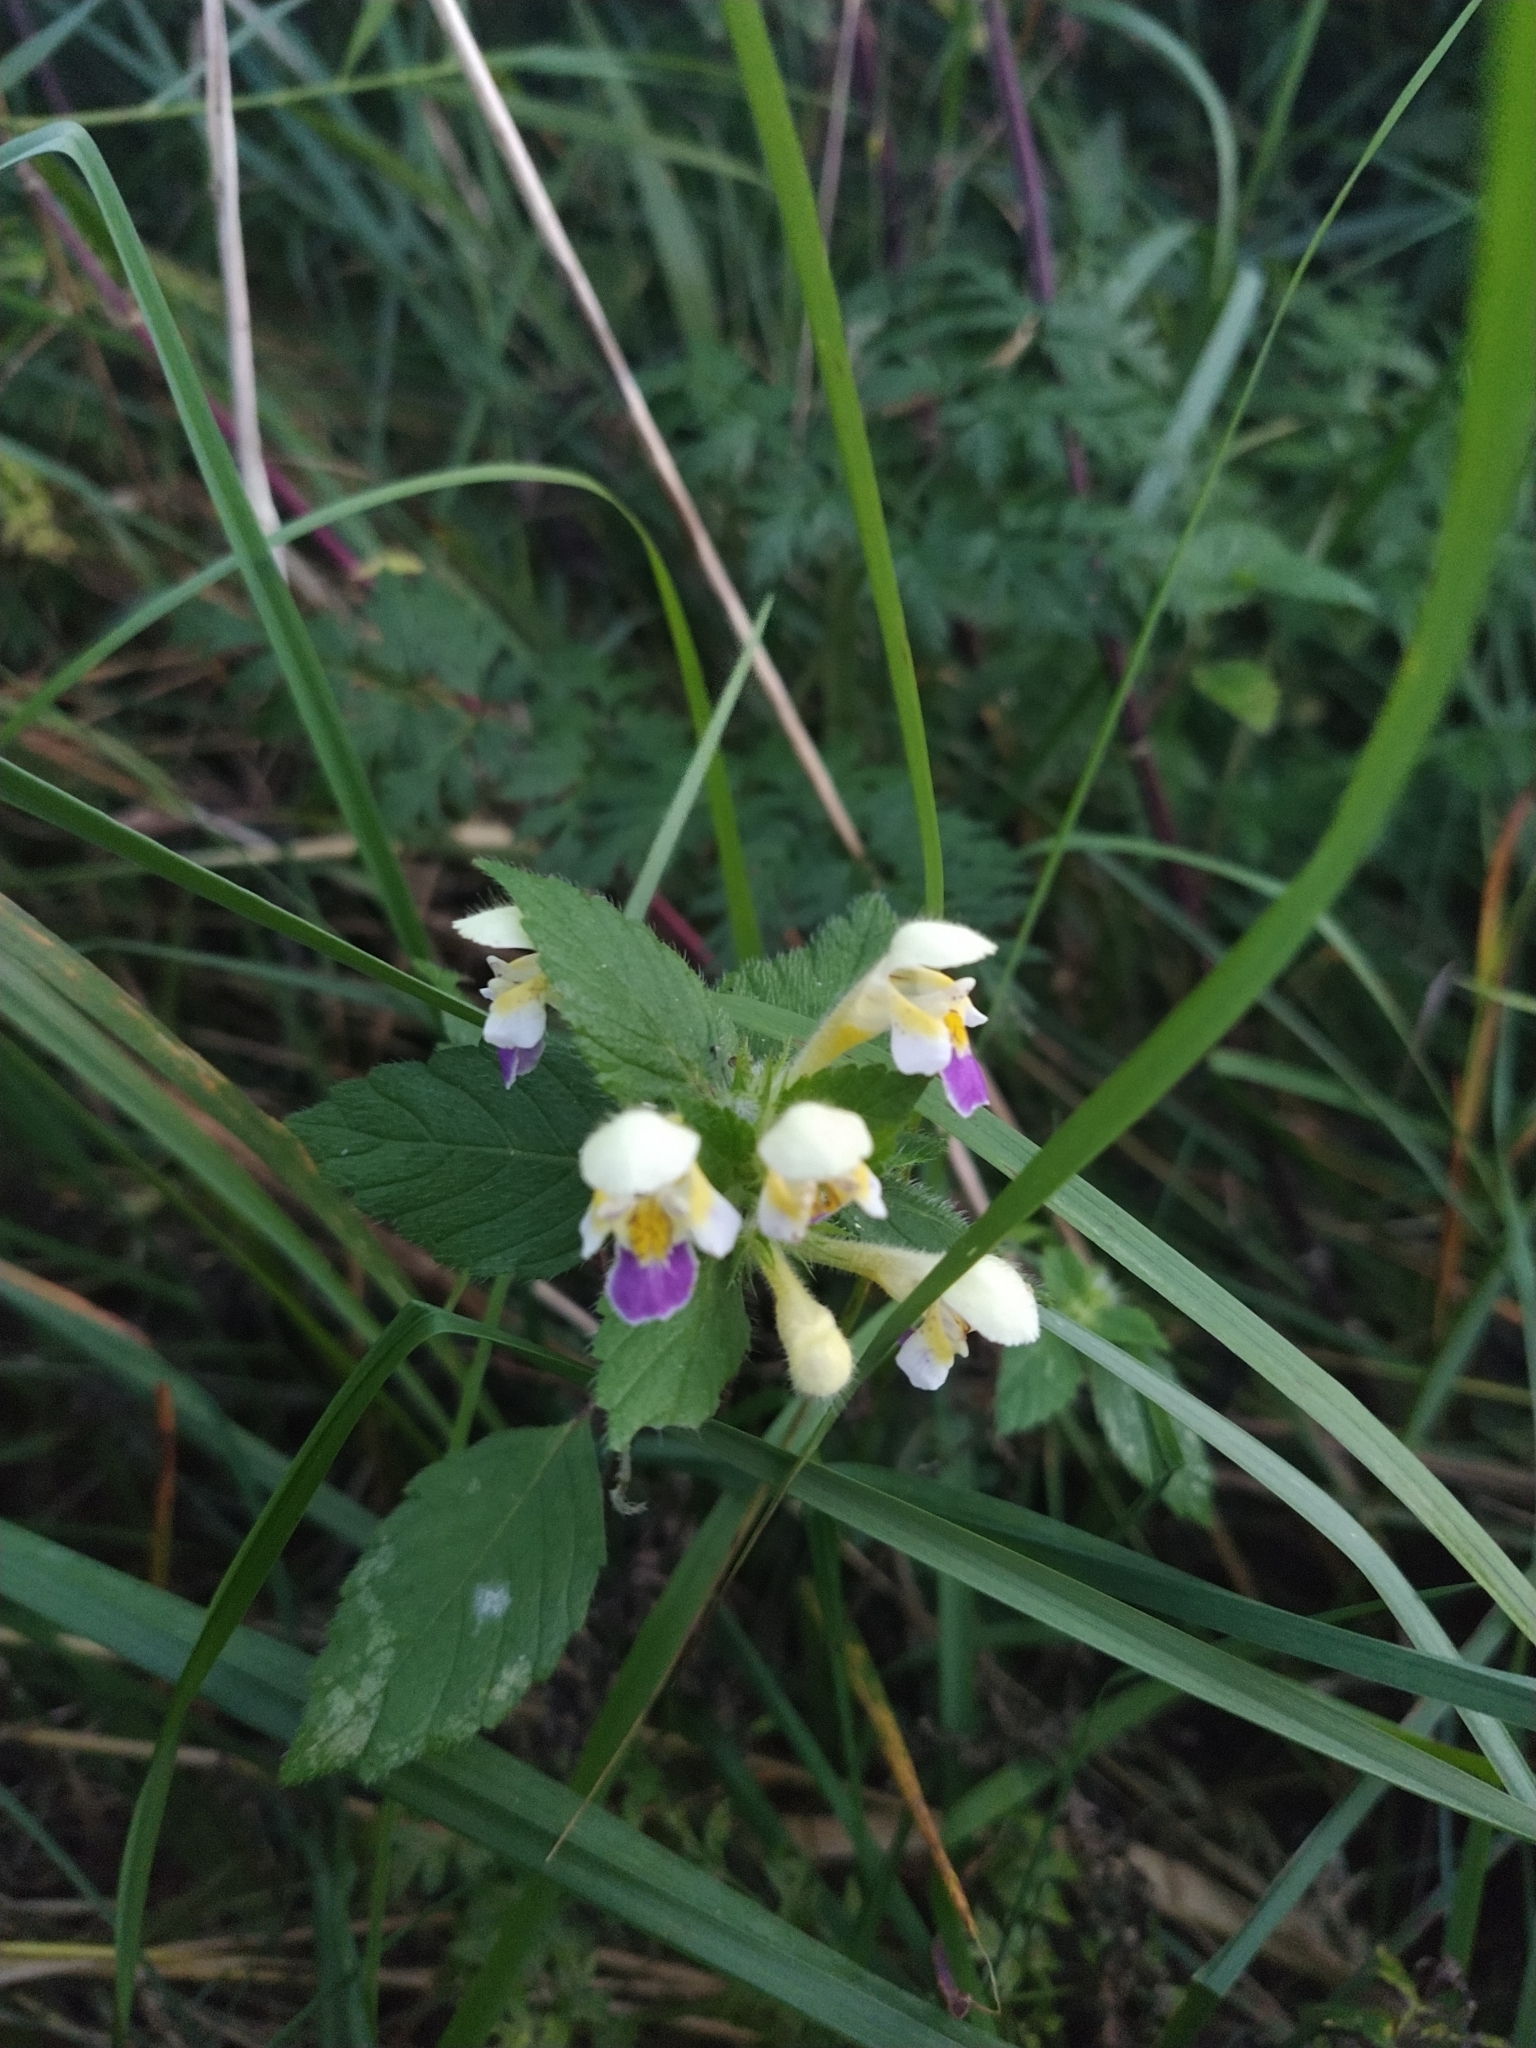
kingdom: Plantae
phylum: Tracheophyta
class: Magnoliopsida
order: Lamiales
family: Lamiaceae
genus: Galeopsis
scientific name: Galeopsis speciosa
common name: Large-flowered hemp-nettle
